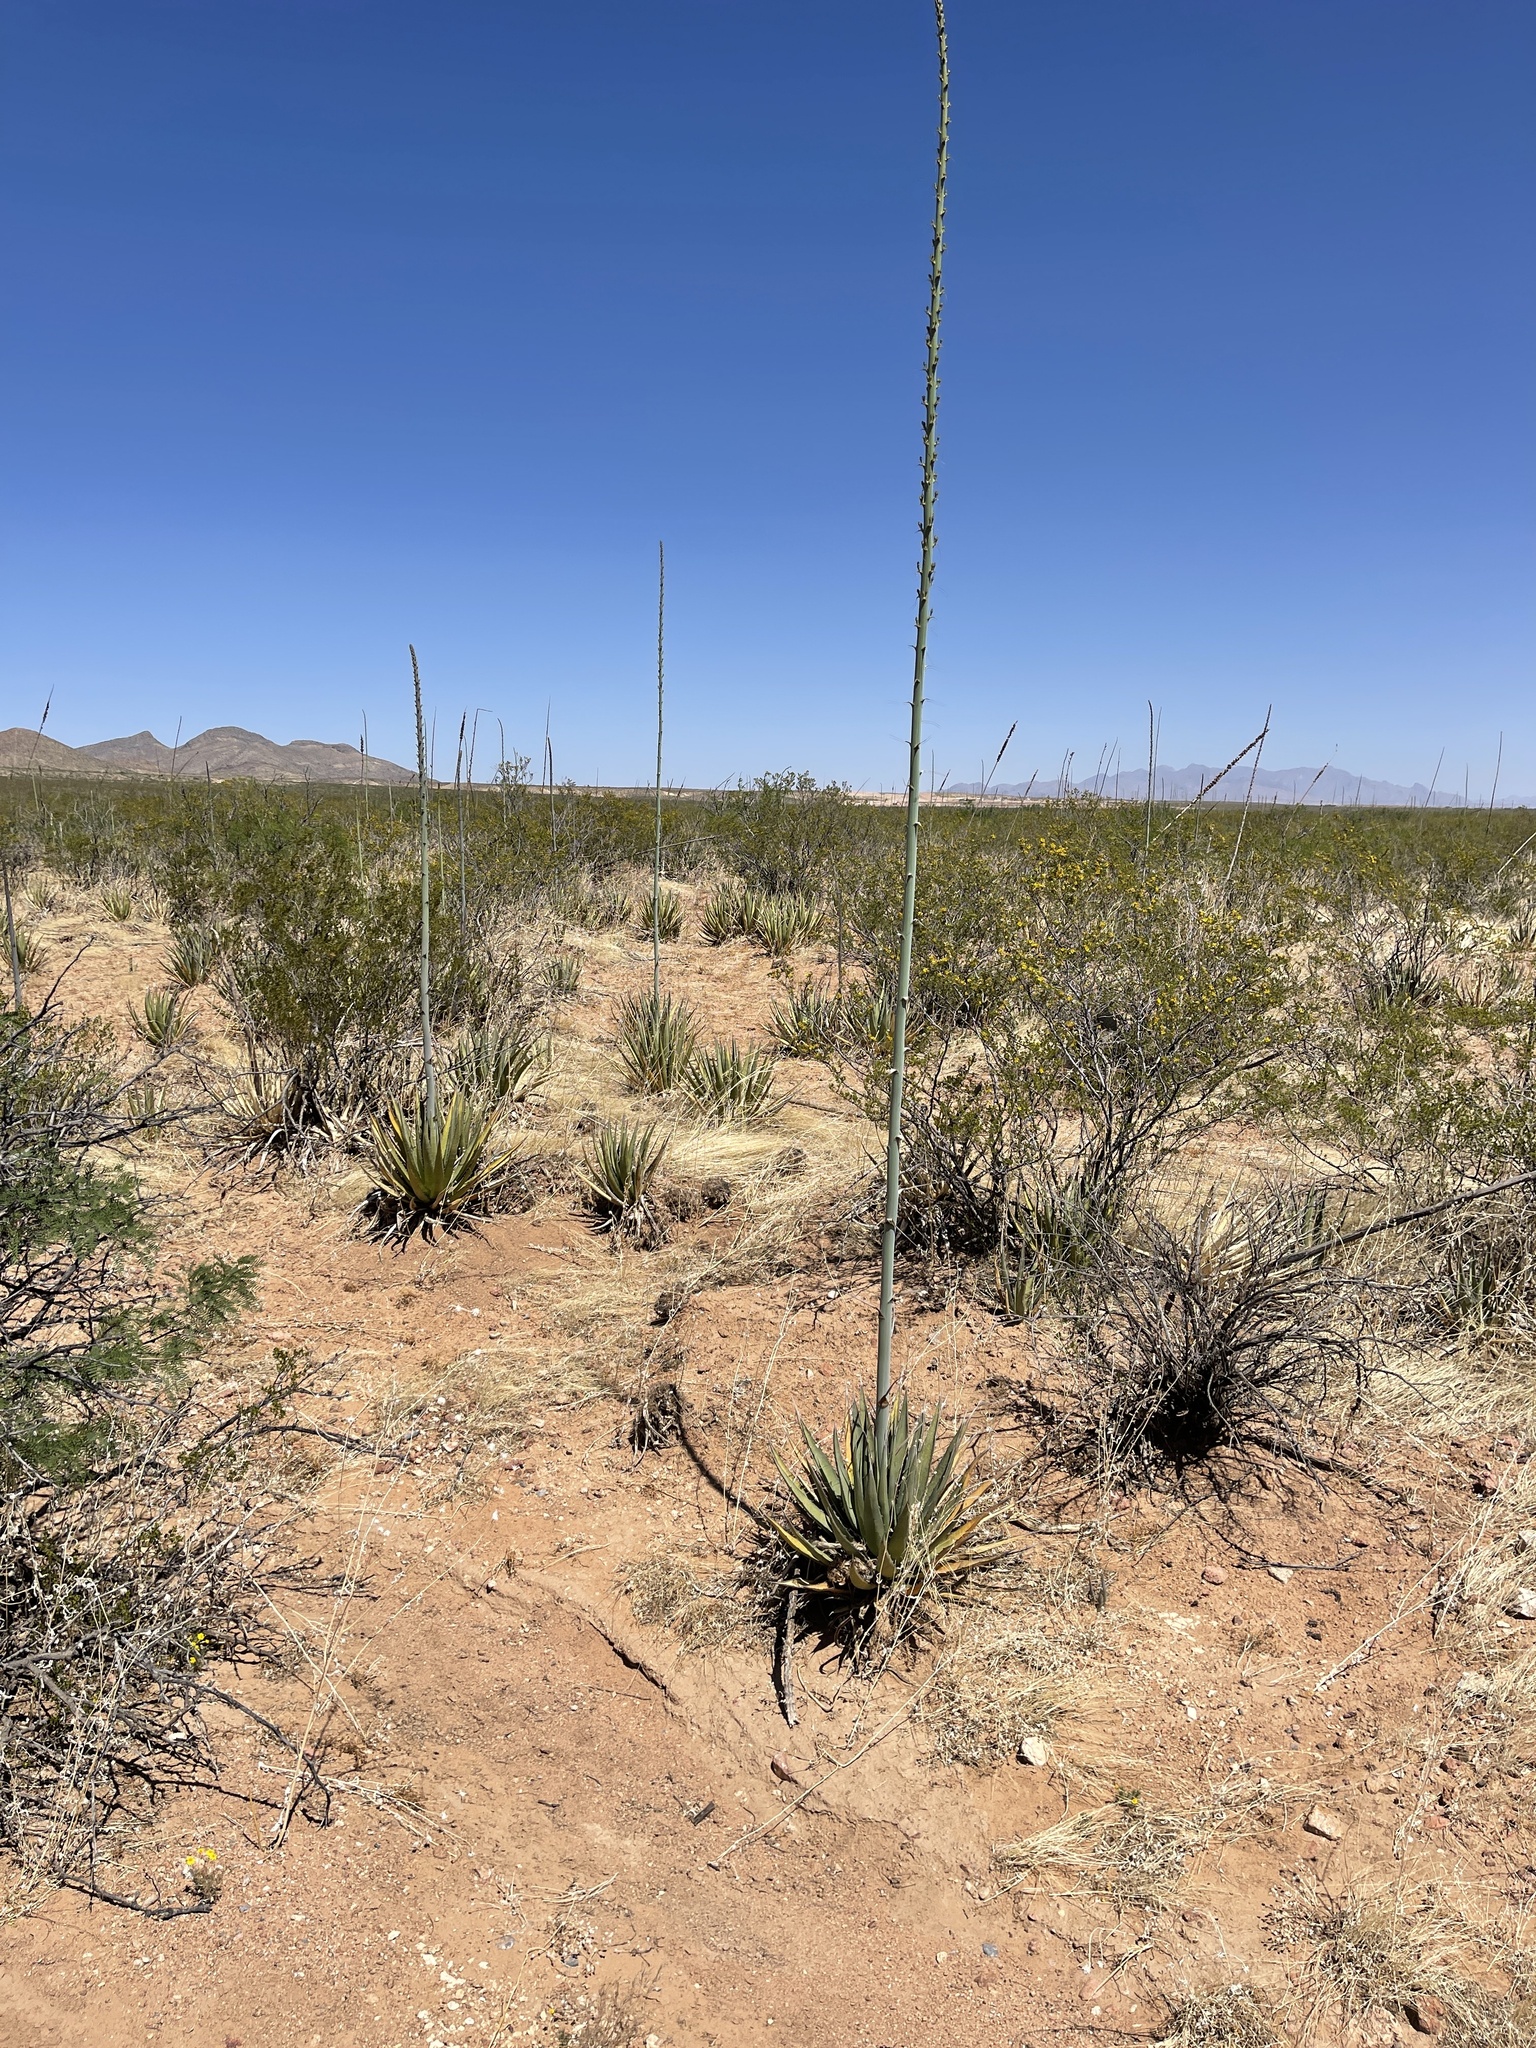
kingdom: Plantae
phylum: Tracheophyta
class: Liliopsida
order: Asparagales
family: Asparagaceae
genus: Agave
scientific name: Agave lechuguilla
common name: Lecheguilla agave
